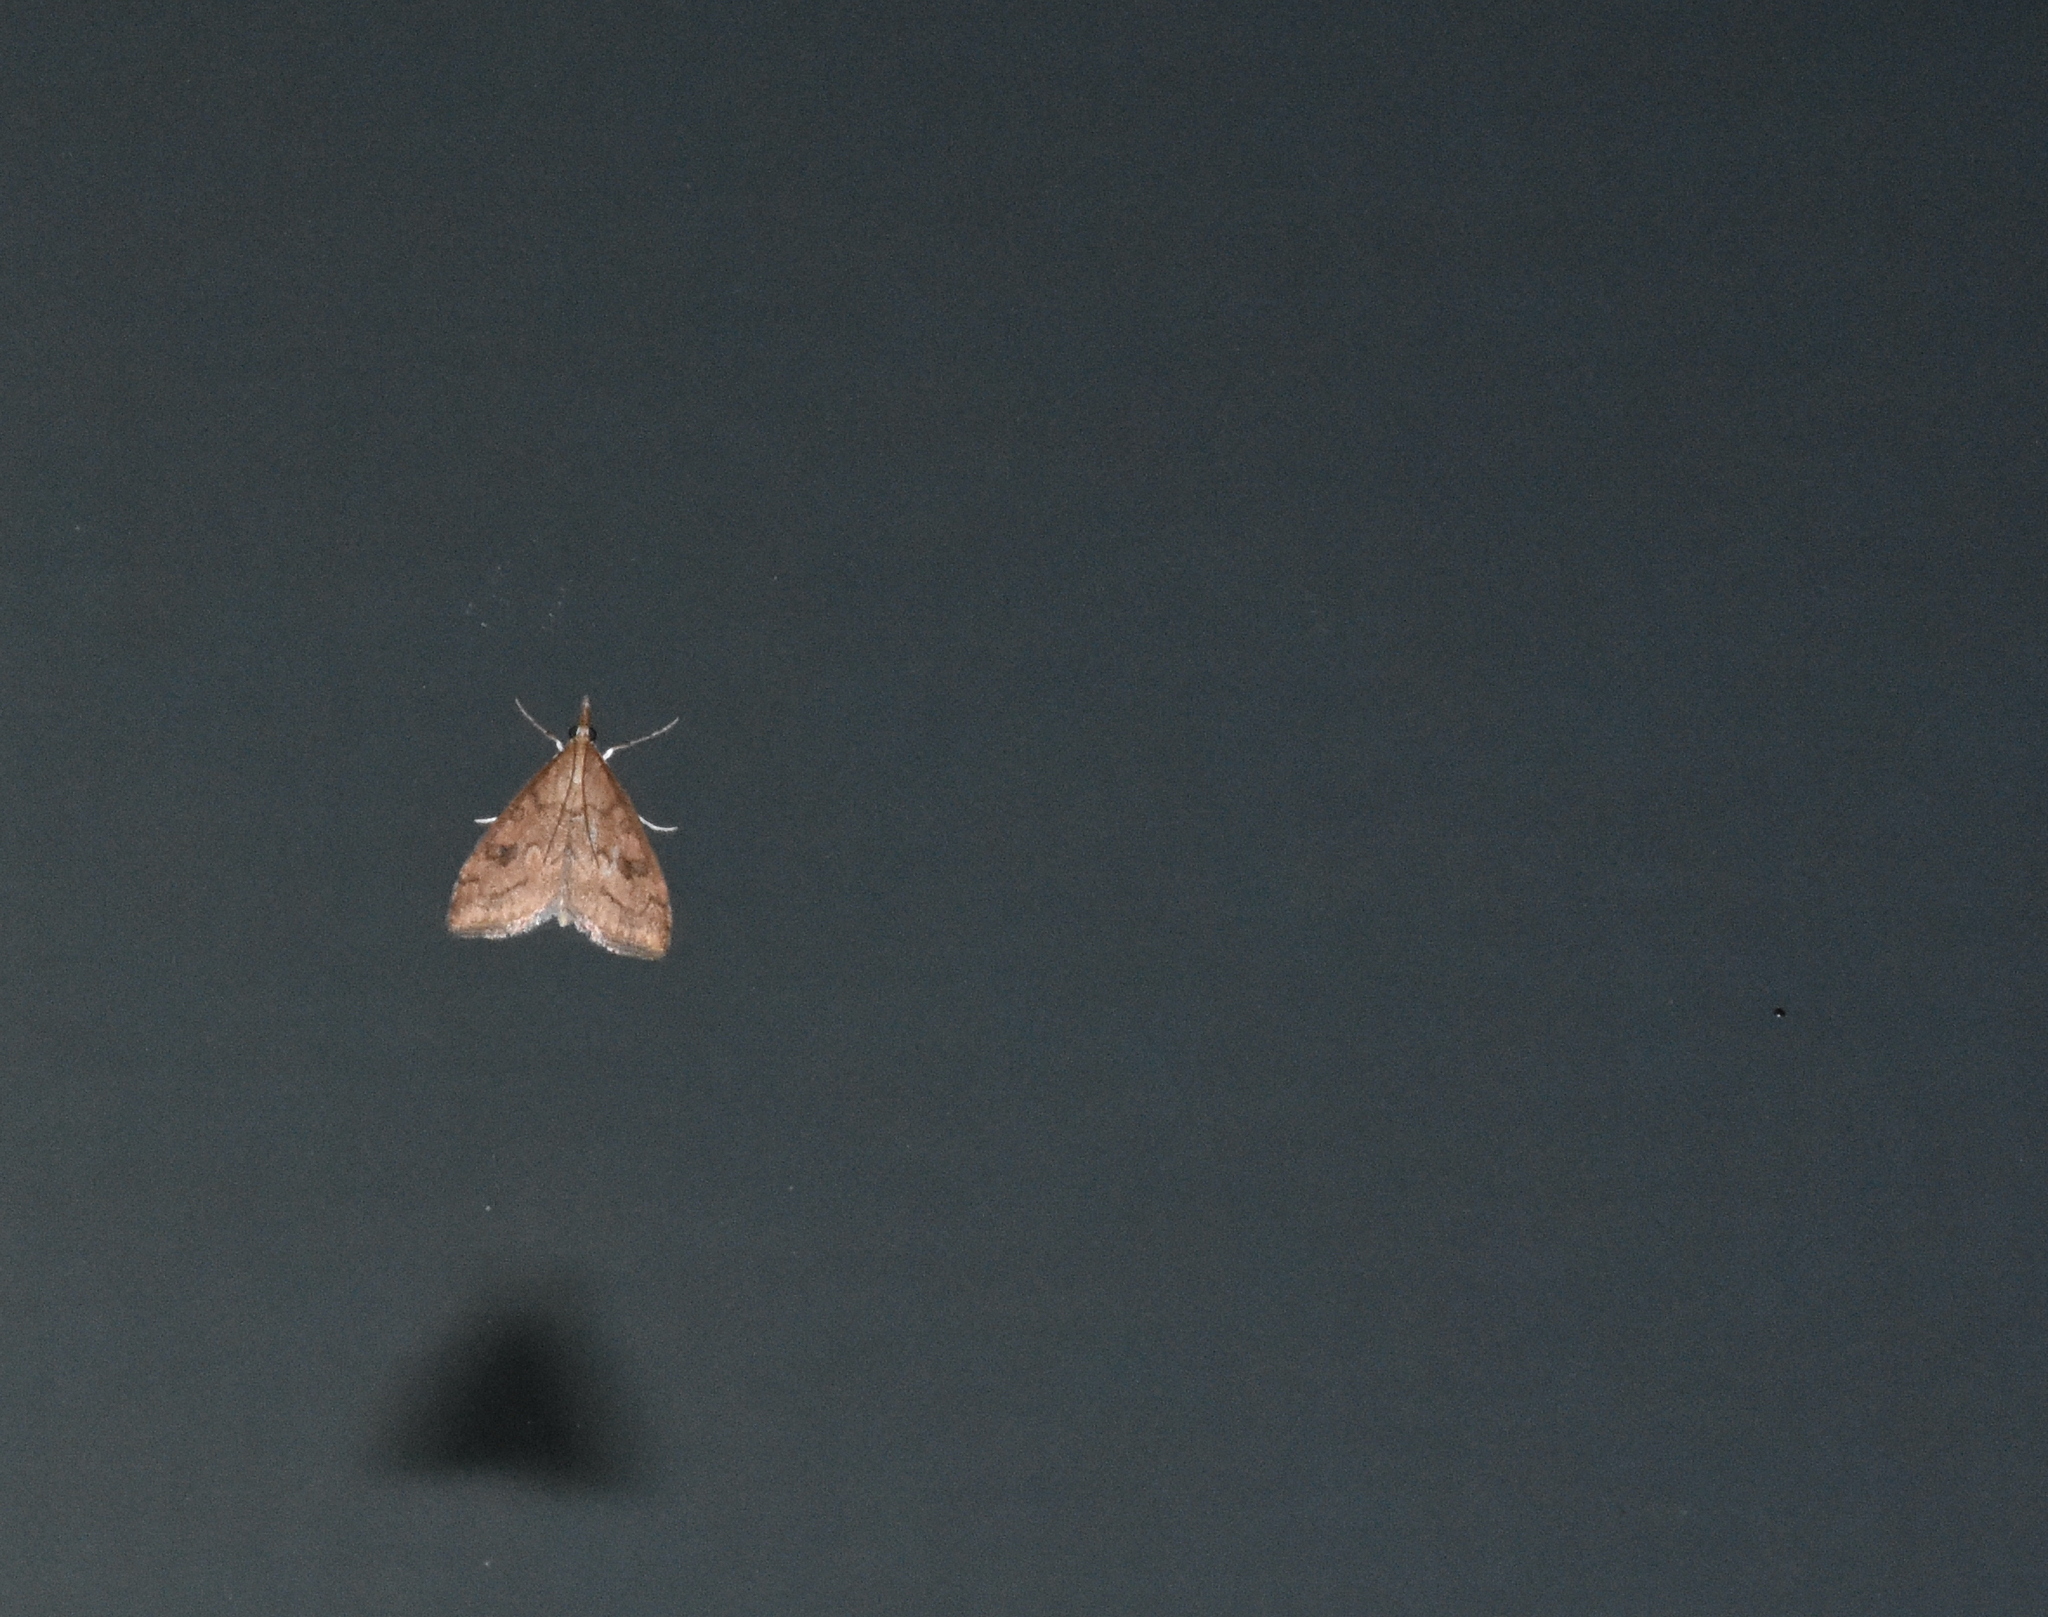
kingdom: Animalia
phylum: Arthropoda
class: Insecta
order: Lepidoptera
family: Crambidae
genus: Udea
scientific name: Udea profundalis
